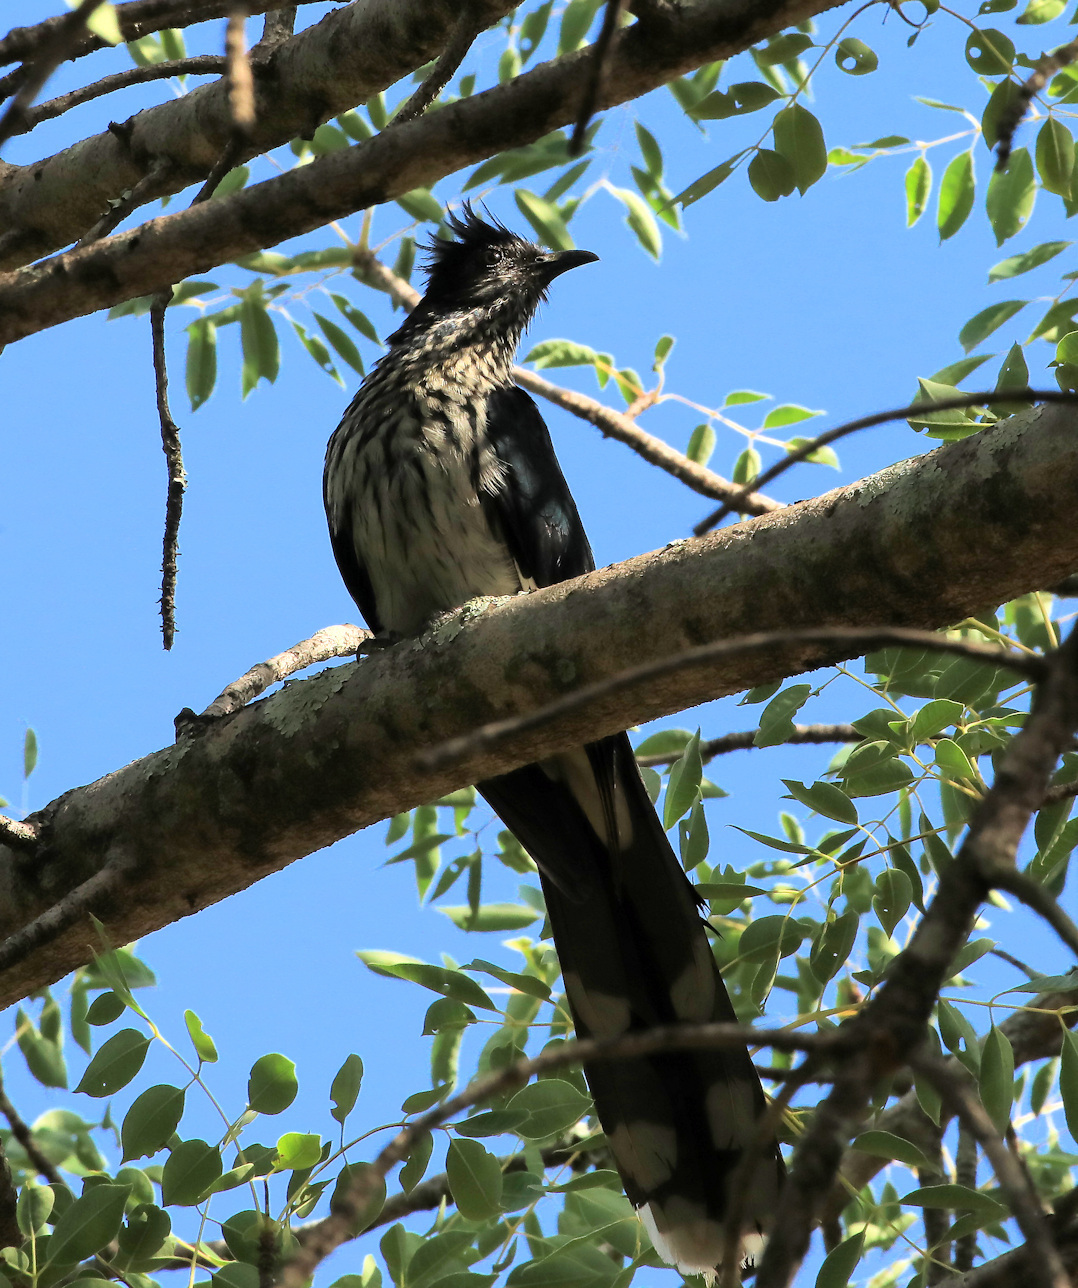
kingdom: Animalia
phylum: Chordata
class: Aves
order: Cuculiformes
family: Cuculidae
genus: Clamator
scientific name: Clamator levaillantii
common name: Levaillant's cuckoo
